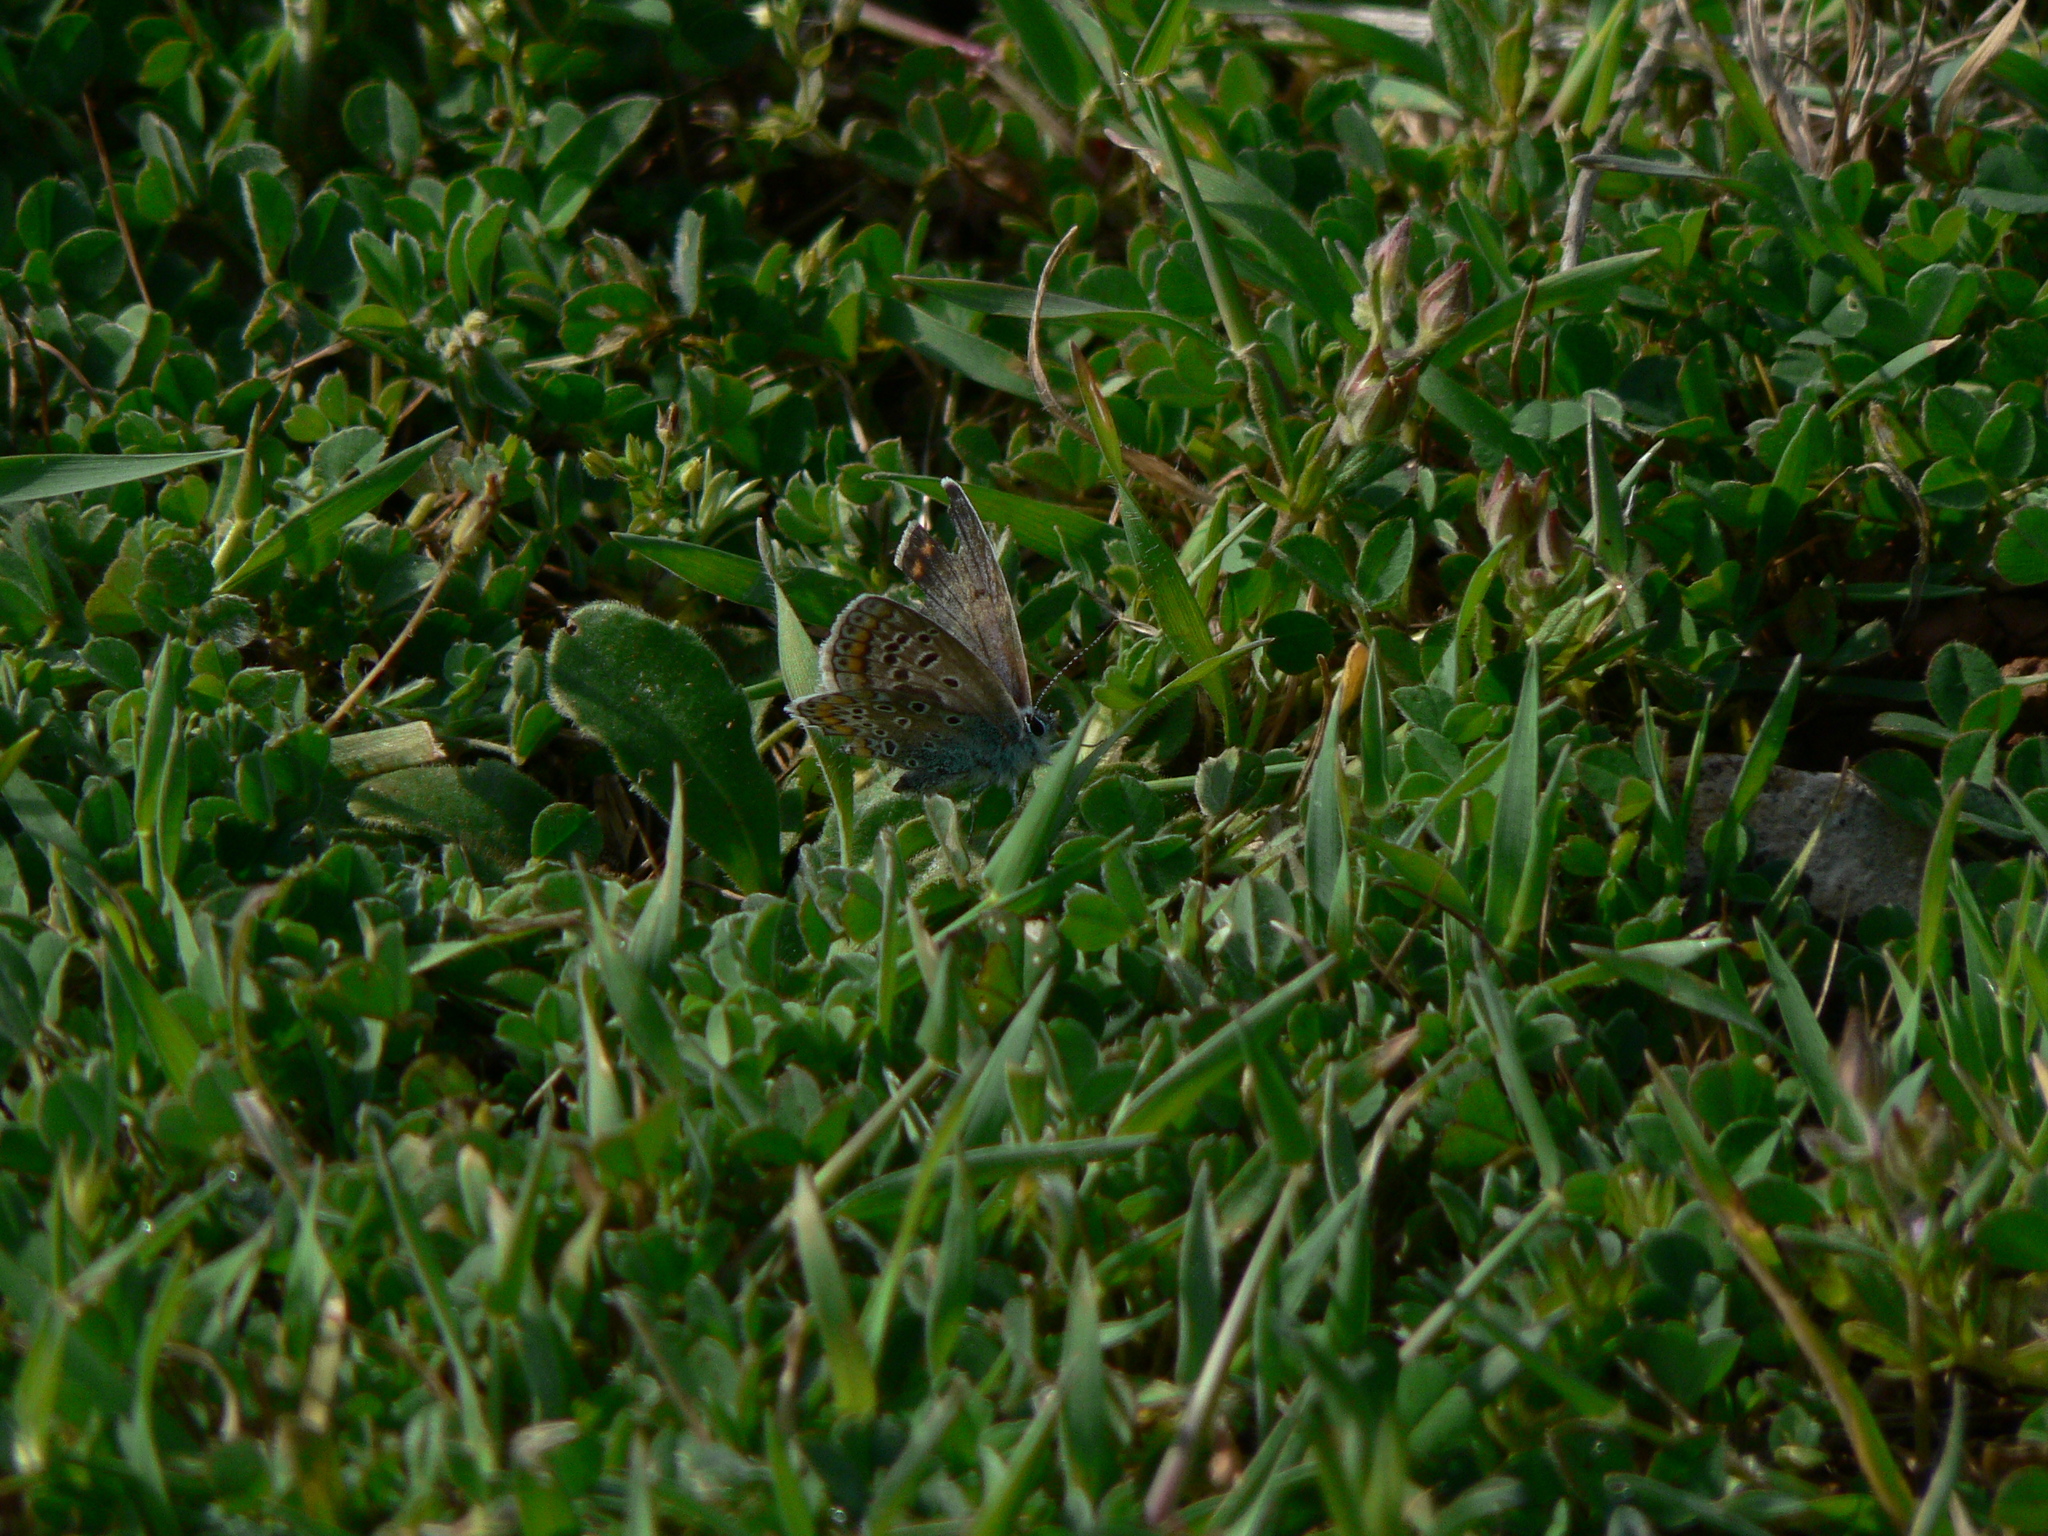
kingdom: Animalia
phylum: Arthropoda
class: Insecta
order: Lepidoptera
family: Lycaenidae
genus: Polyommatus
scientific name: Polyommatus icarus
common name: Common blue
